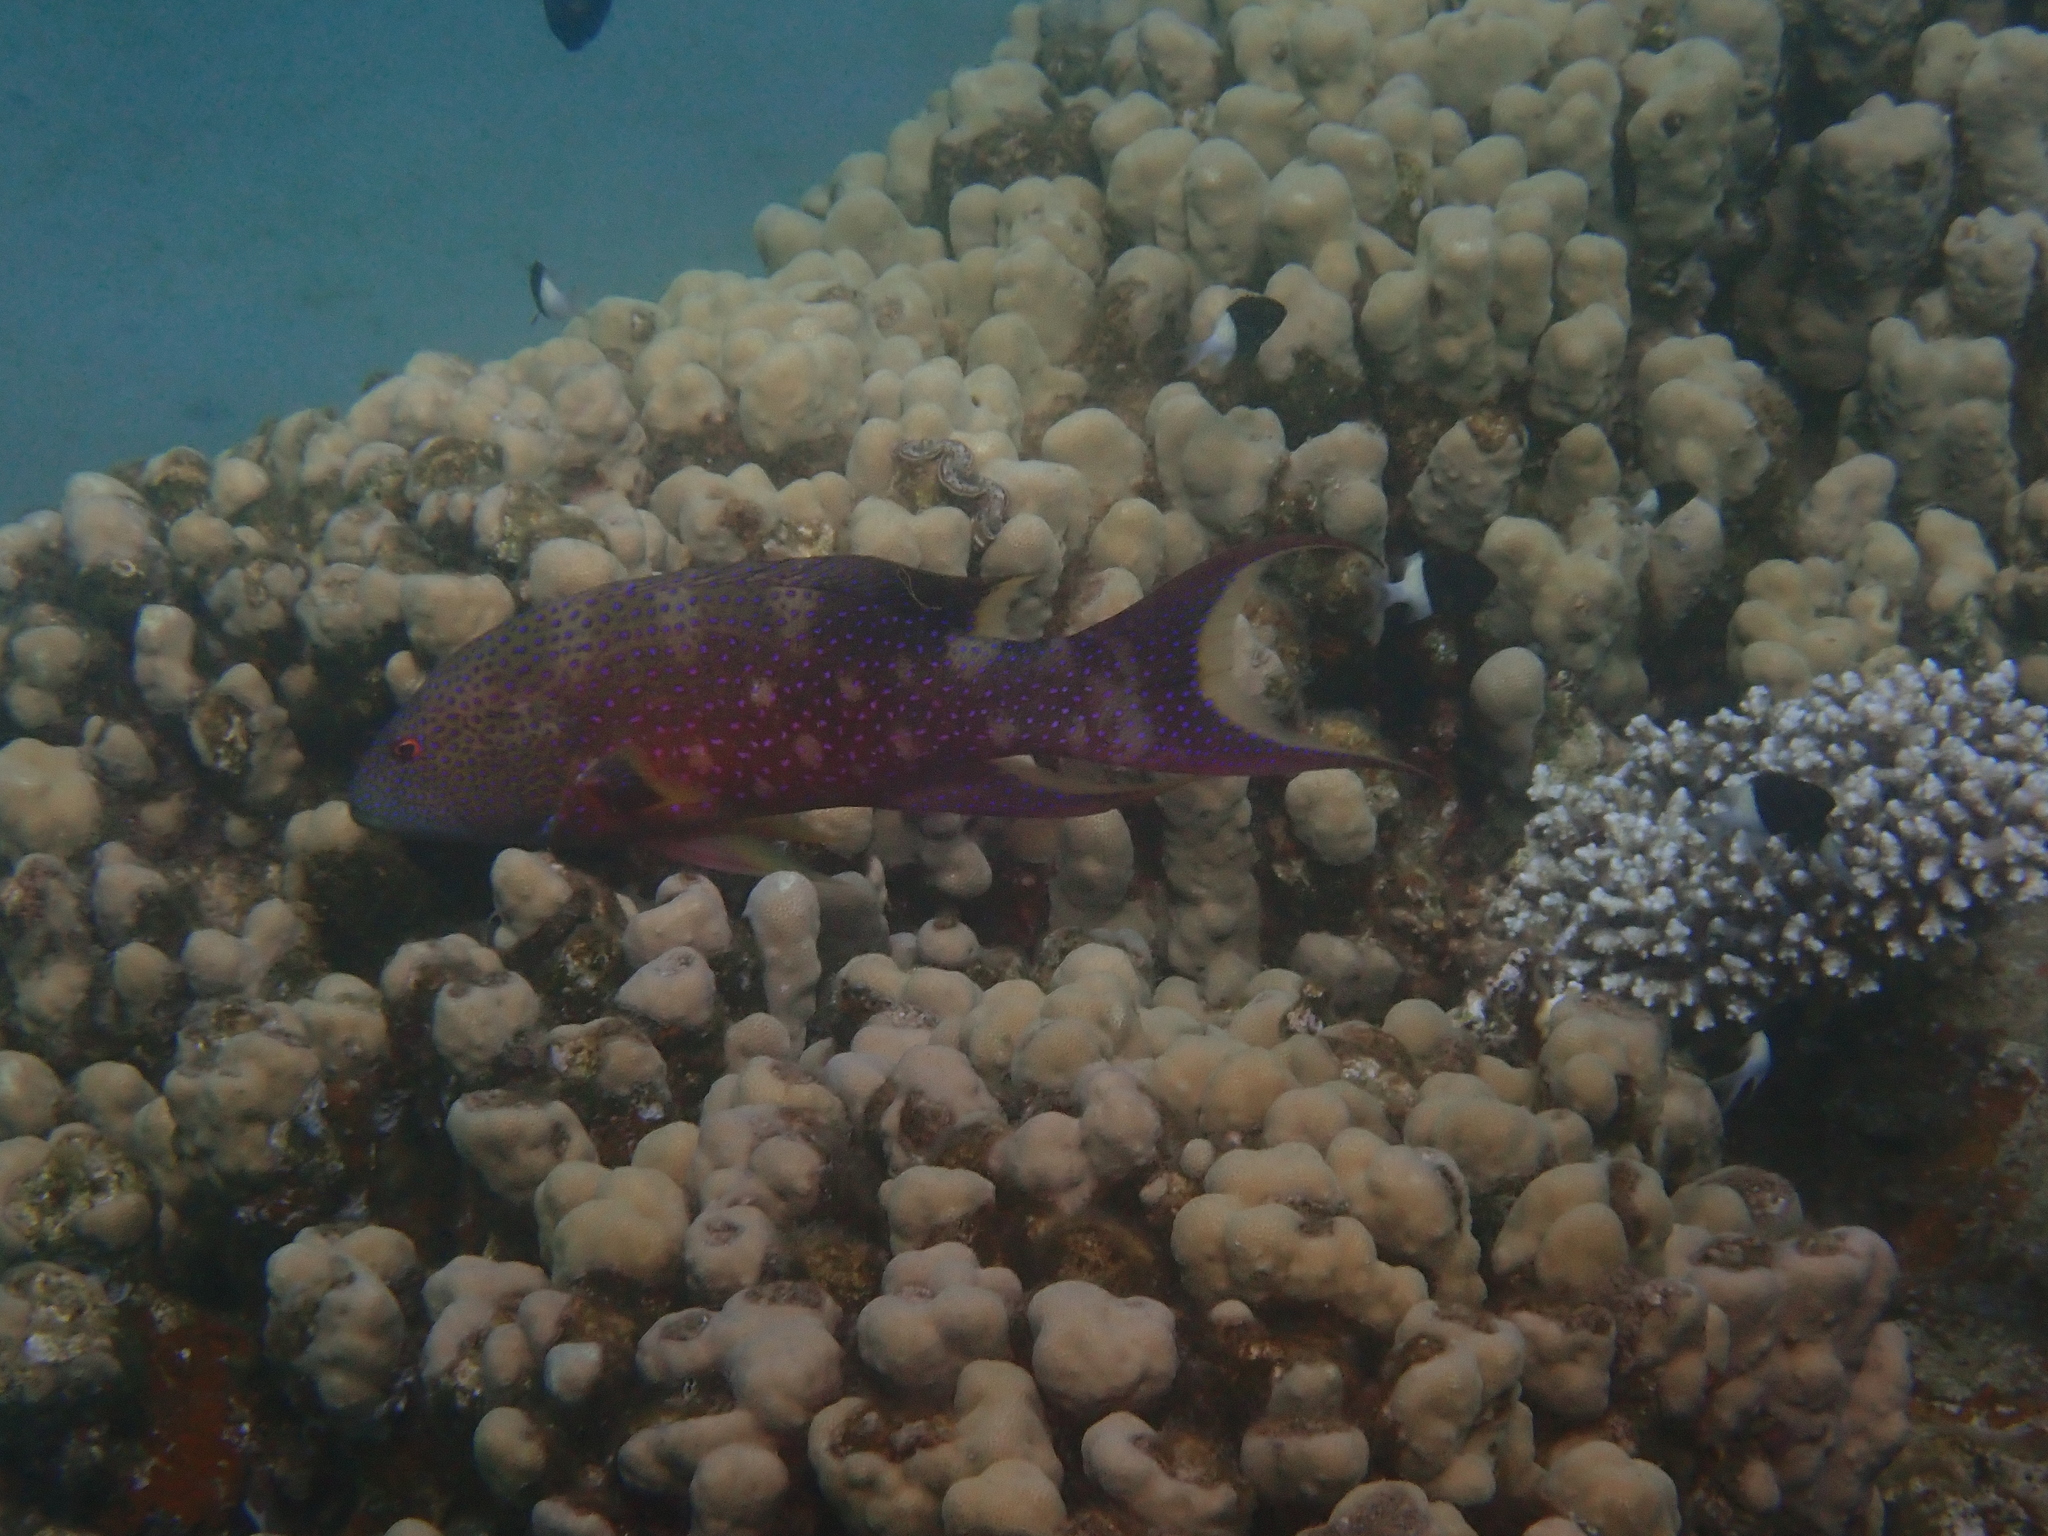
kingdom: Animalia
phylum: Chordata
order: Perciformes
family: Pomacentridae
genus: Chromis
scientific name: Chromis dimidiata
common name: Half-and-half chromis
